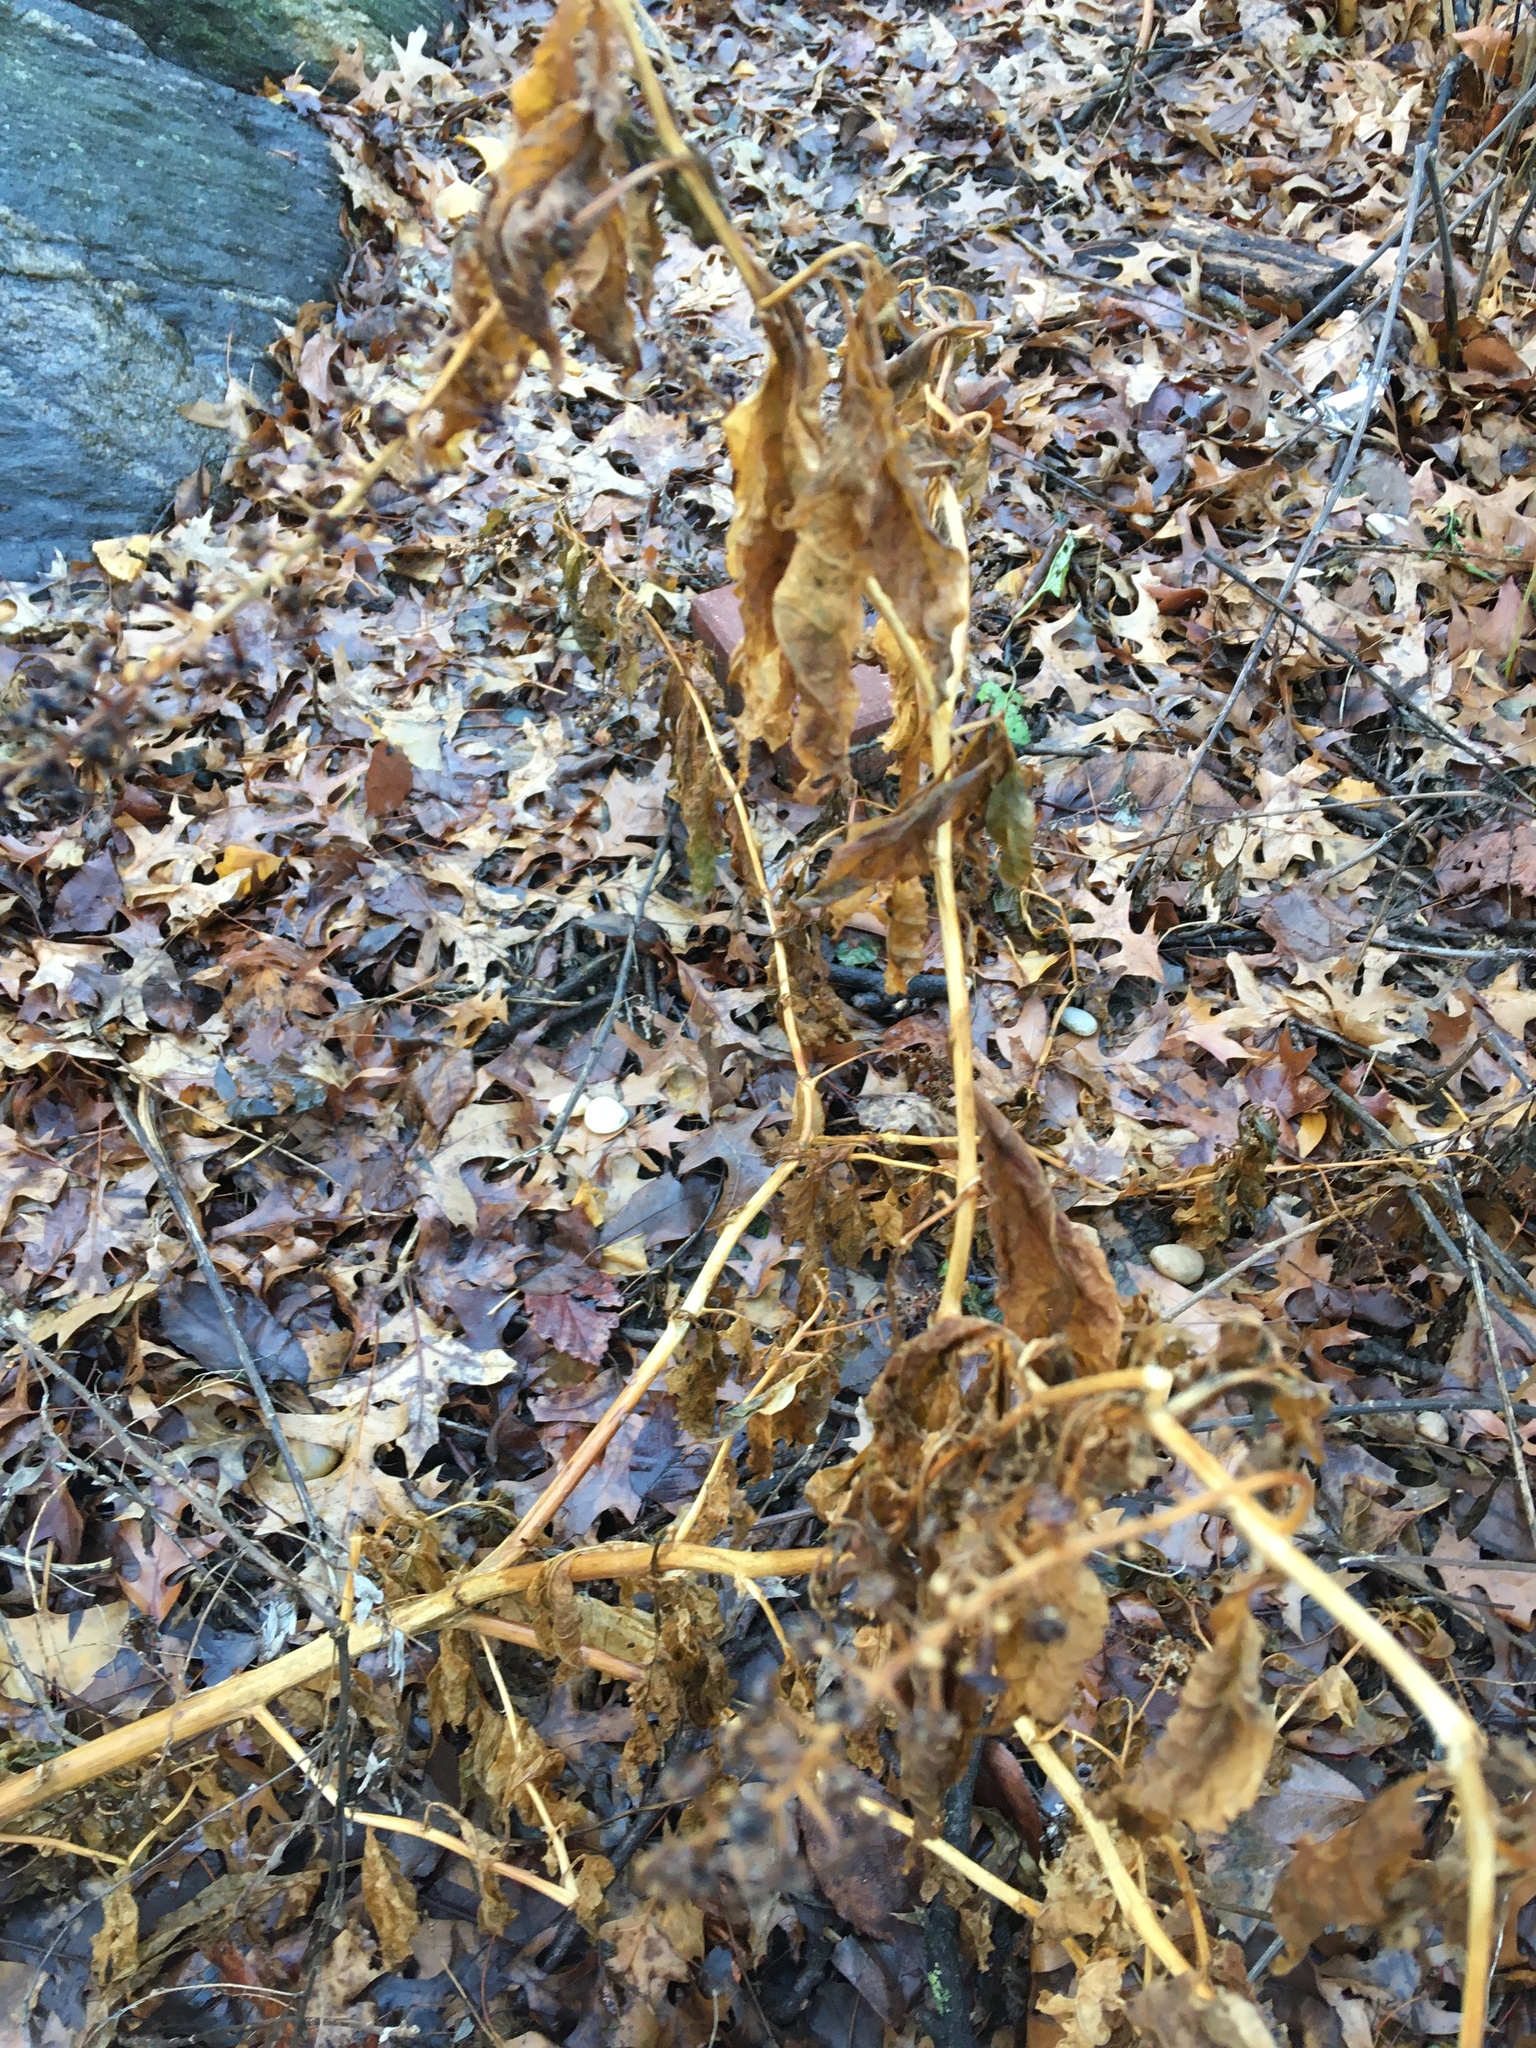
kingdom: Plantae
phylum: Tracheophyta
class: Magnoliopsida
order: Caryophyllales
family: Phytolaccaceae
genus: Phytolacca
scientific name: Phytolacca americana
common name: American pokeweed
